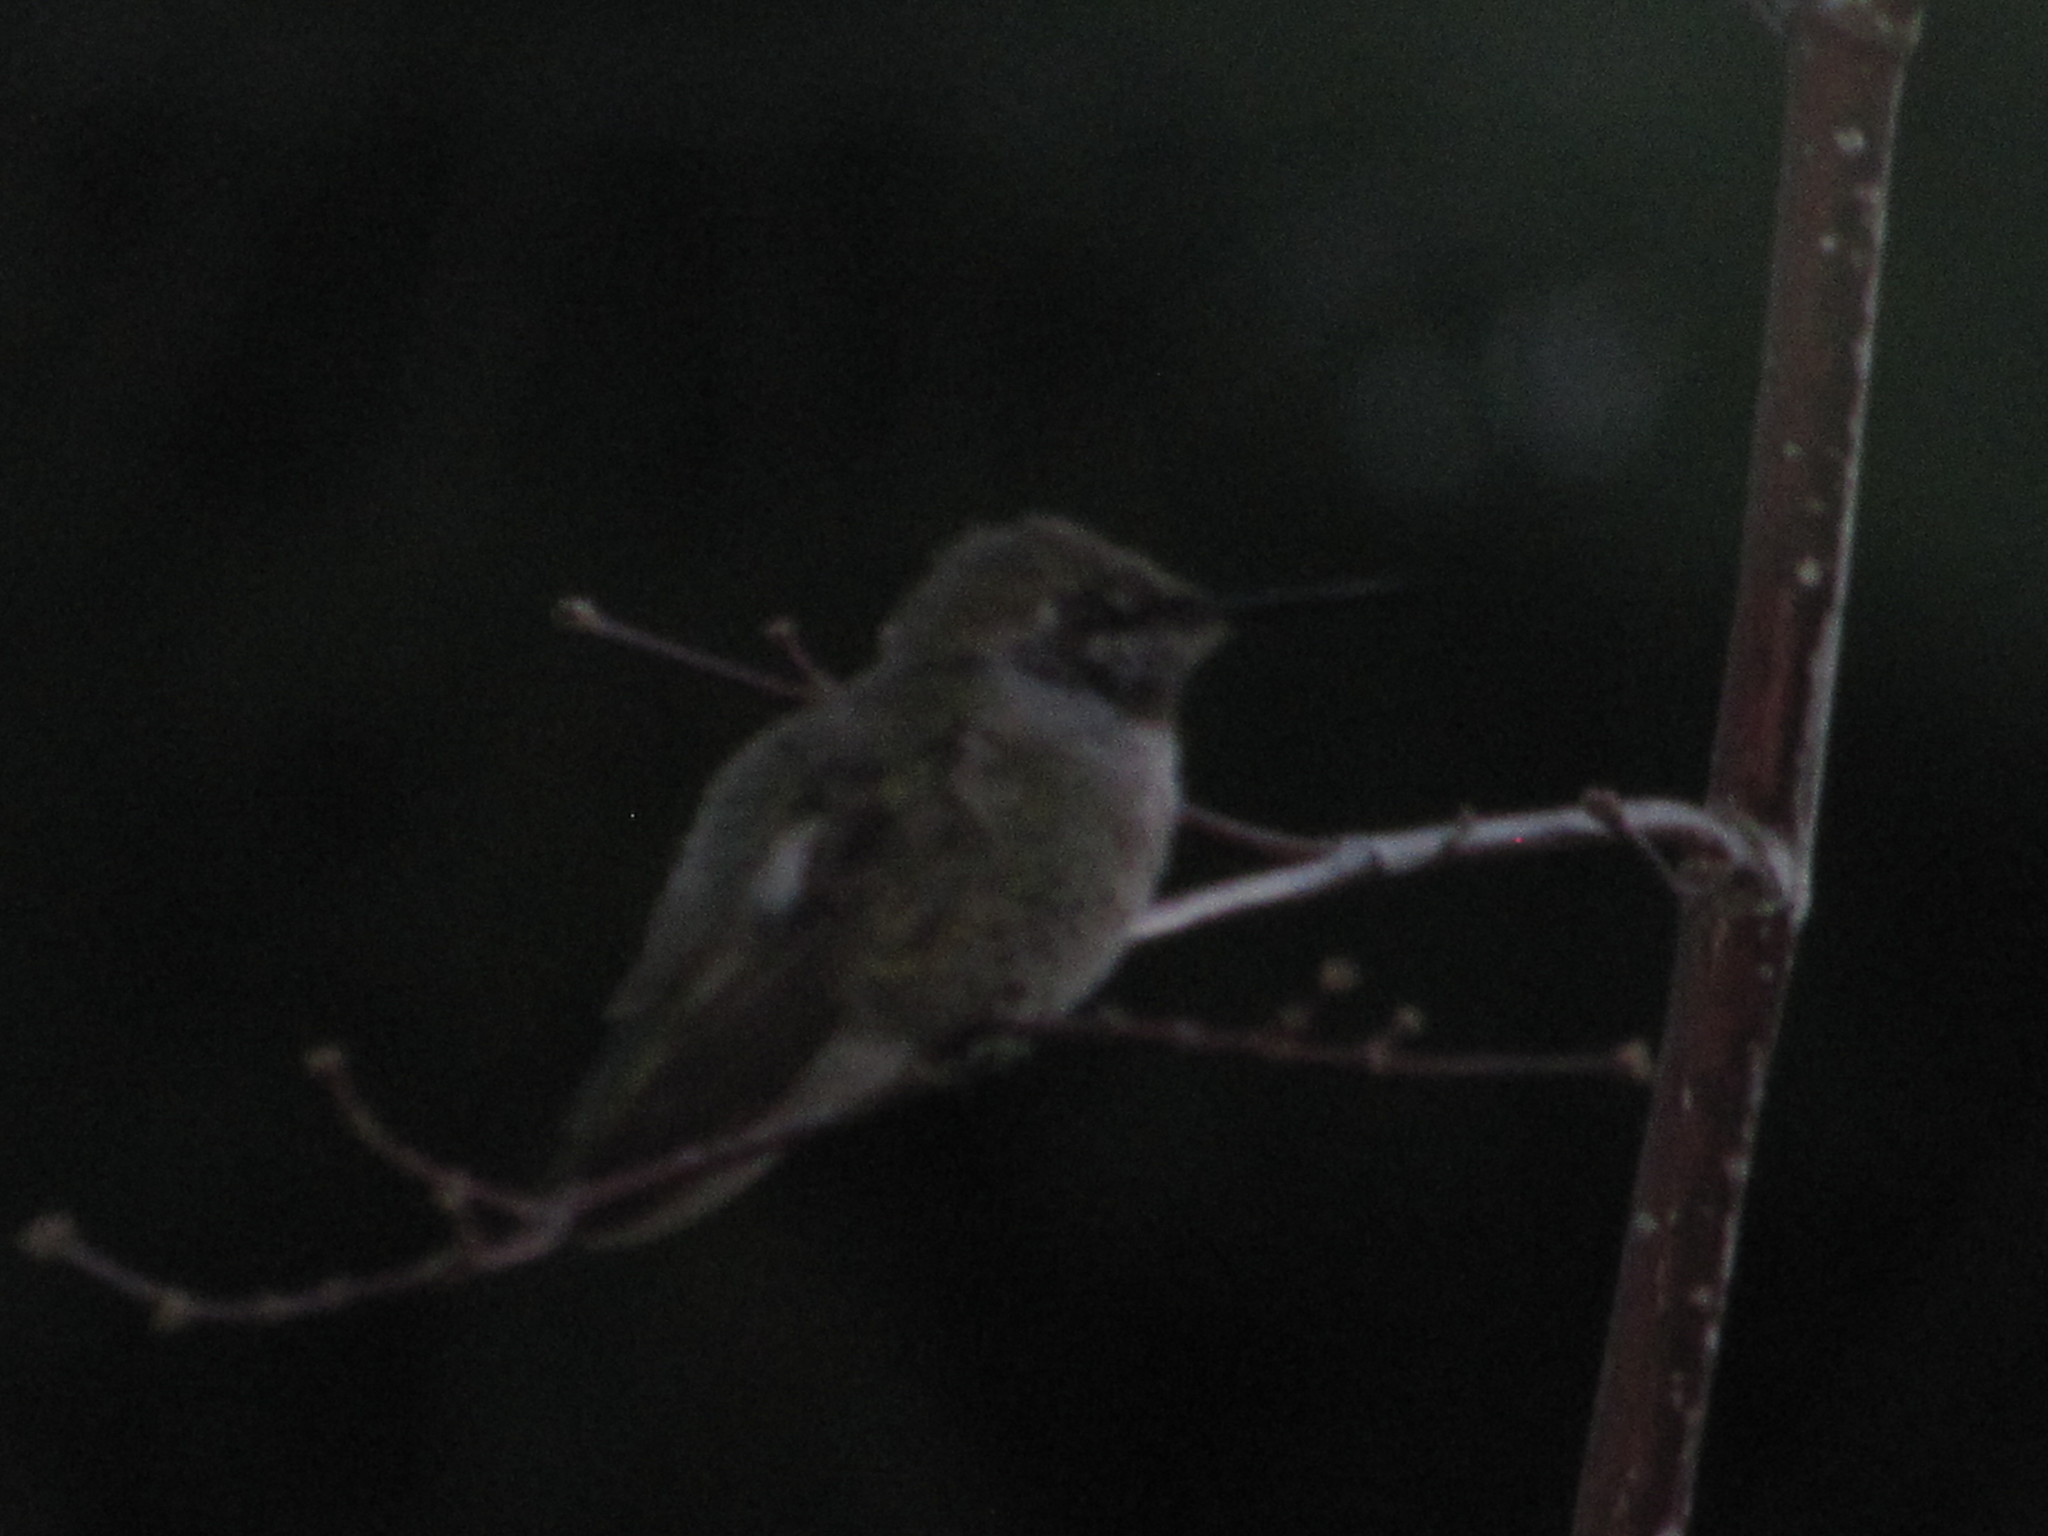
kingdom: Animalia
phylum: Chordata
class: Aves
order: Apodiformes
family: Trochilidae
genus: Calypte
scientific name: Calypte anna
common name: Anna's hummingbird
